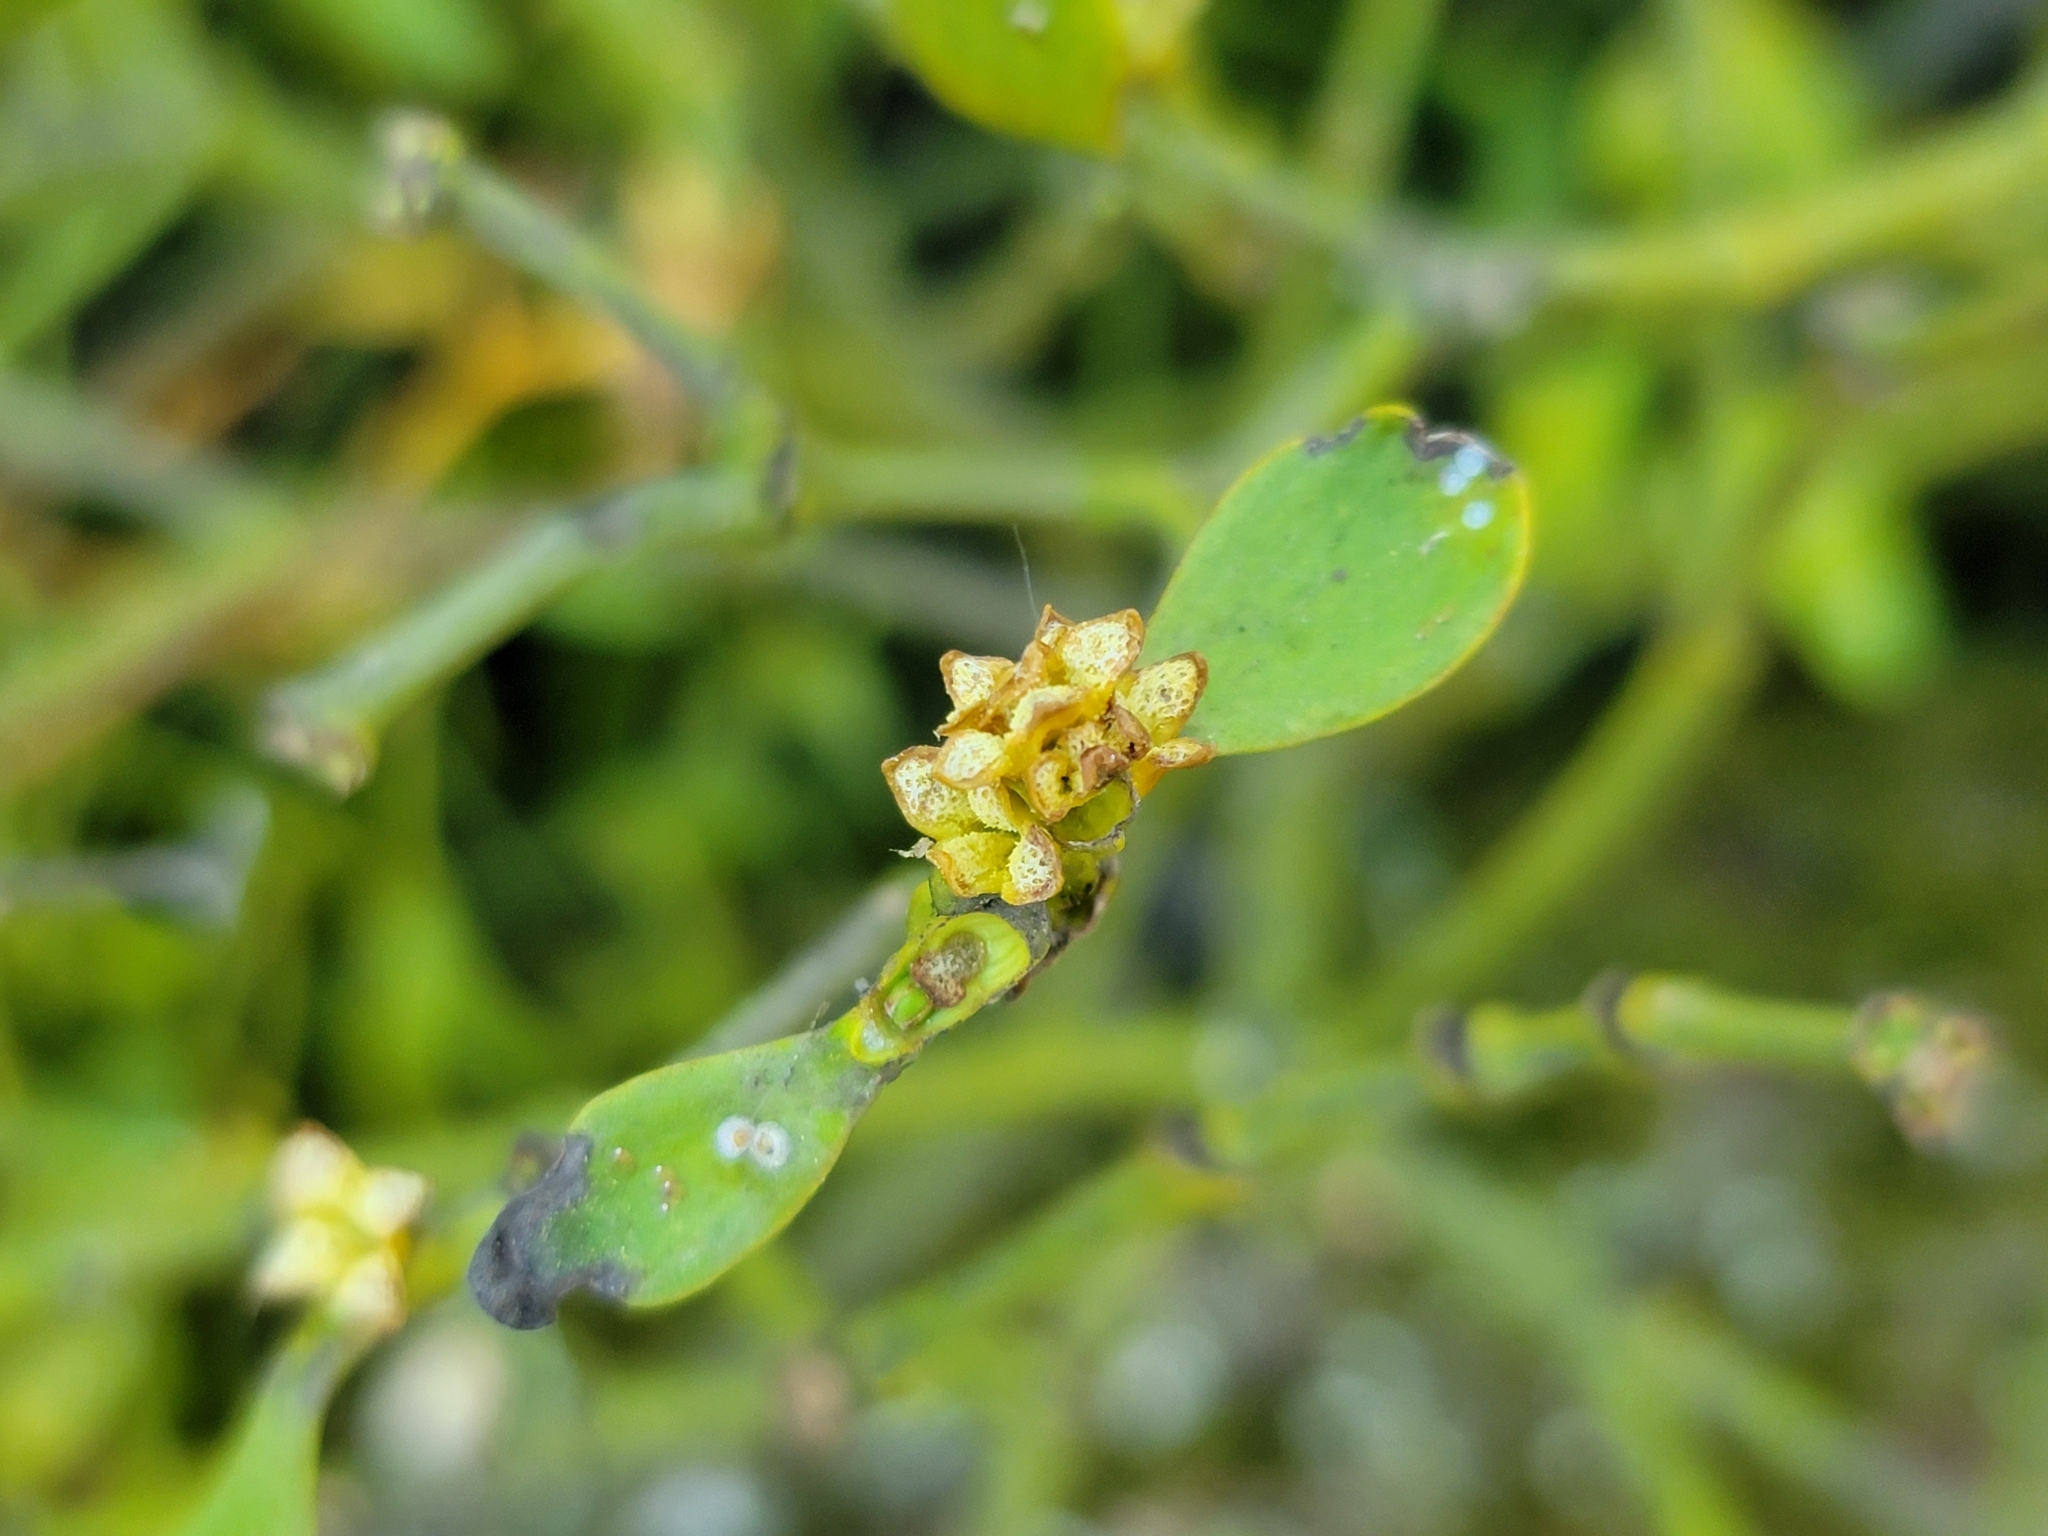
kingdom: Plantae
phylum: Tracheophyta
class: Magnoliopsida
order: Santalales
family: Viscaceae
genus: Viscum
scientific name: Viscum album
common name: Mistletoe
